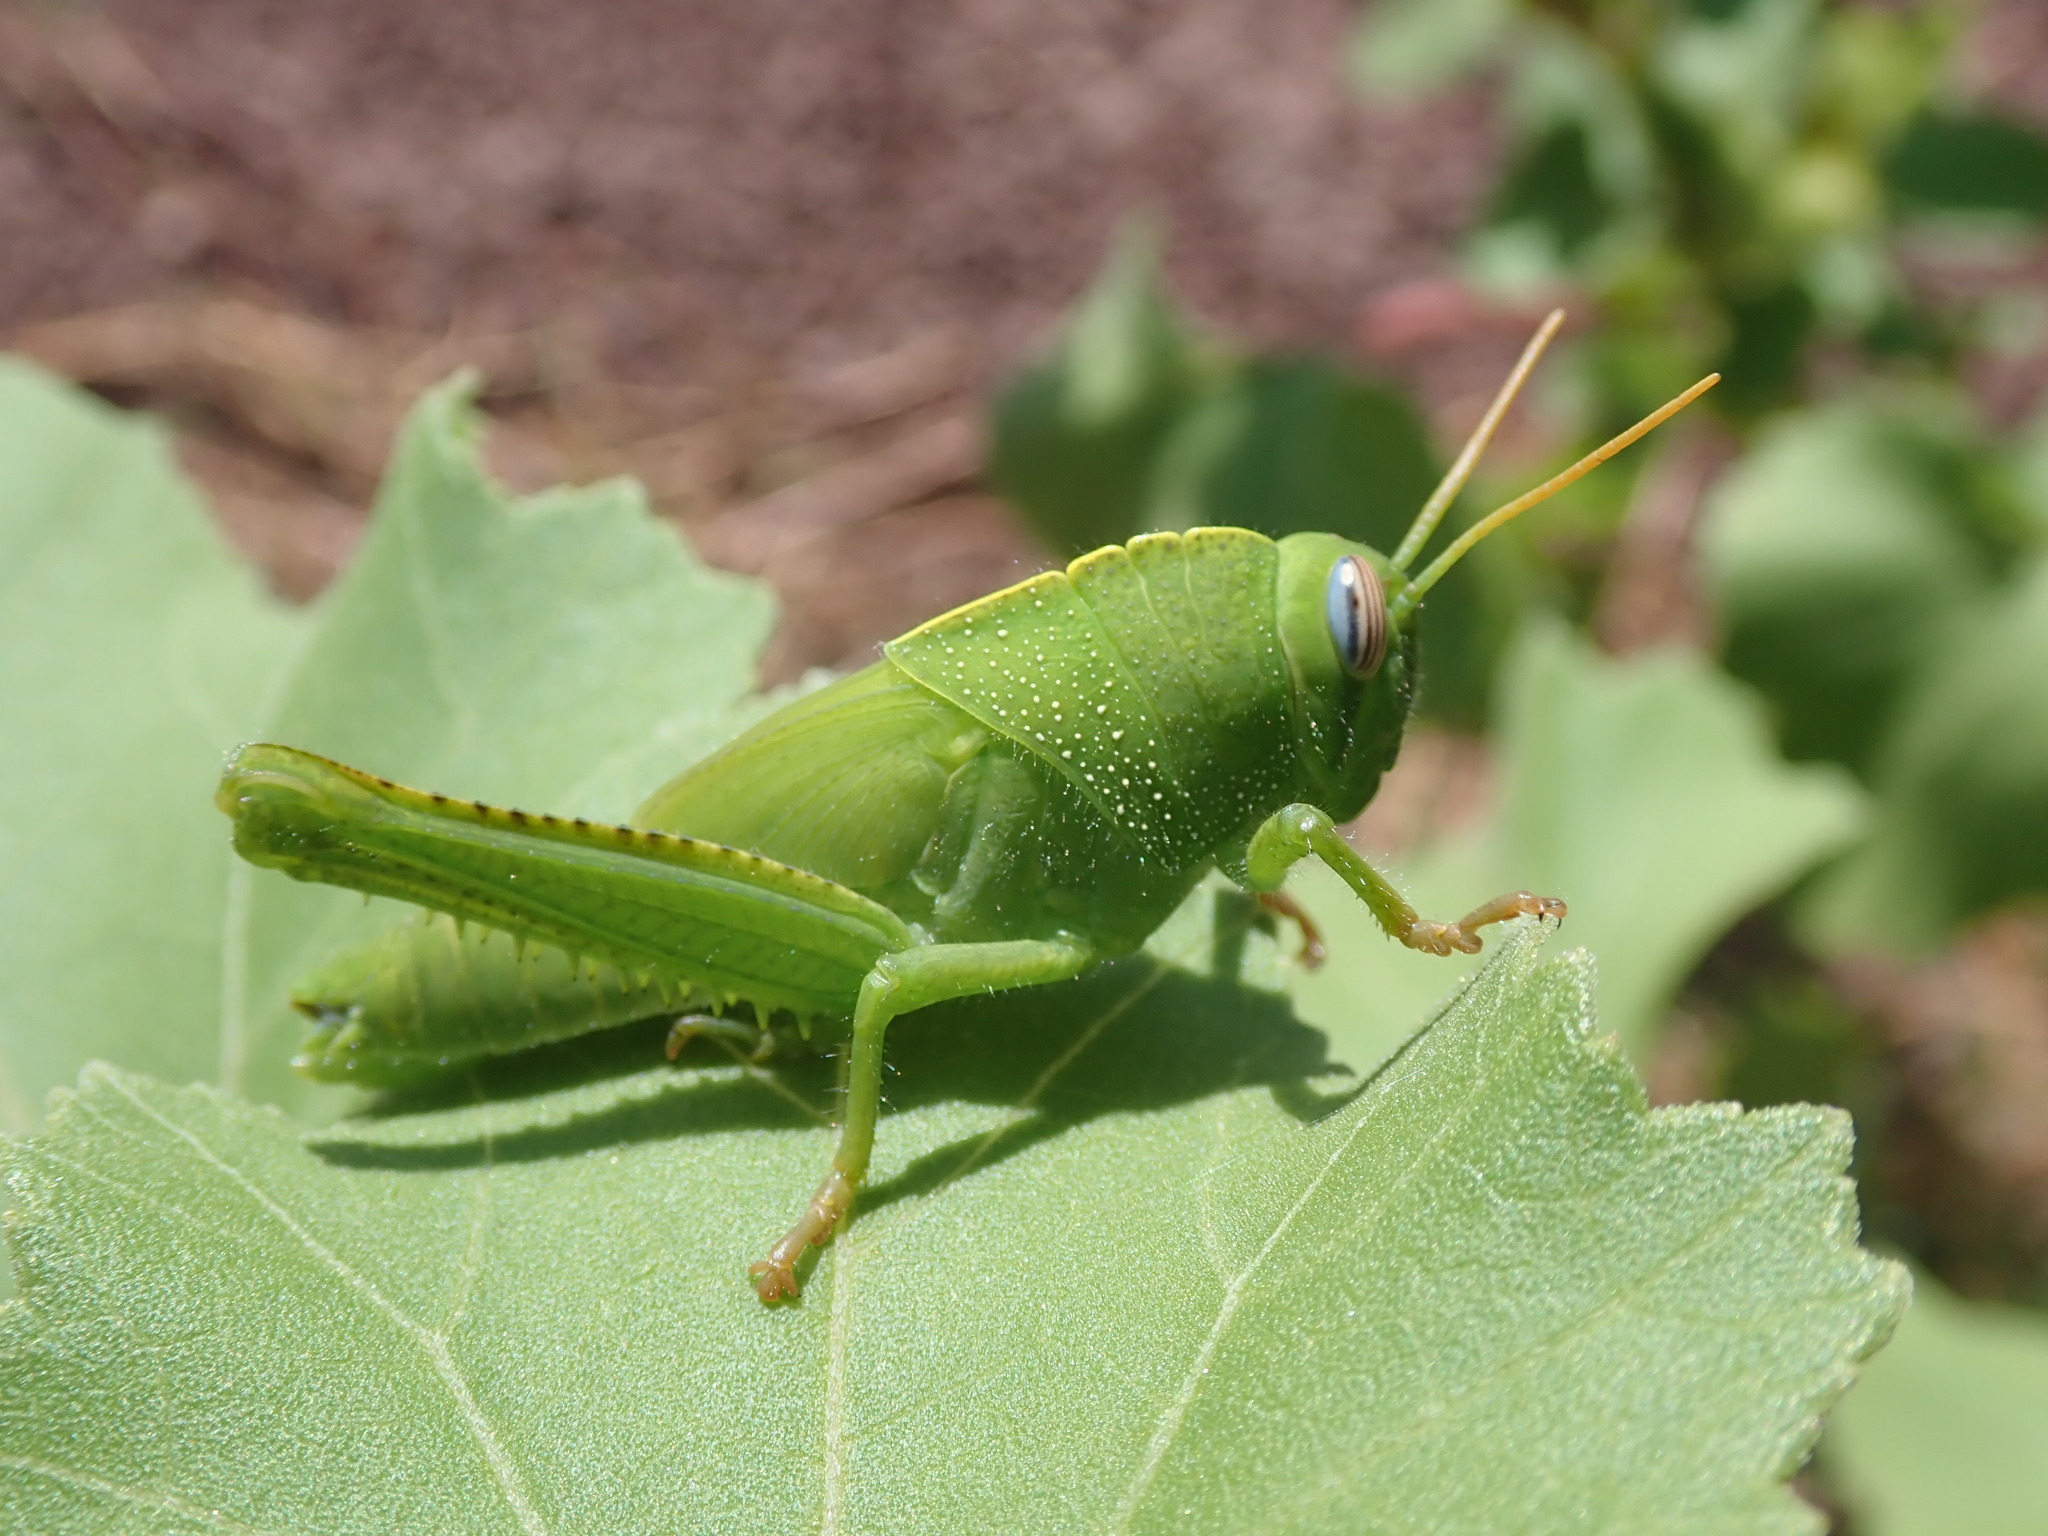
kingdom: Animalia
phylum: Arthropoda
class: Insecta
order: Orthoptera
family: Acrididae
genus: Anacridium
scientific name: Anacridium aegyptium
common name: Egyptian grasshopper
